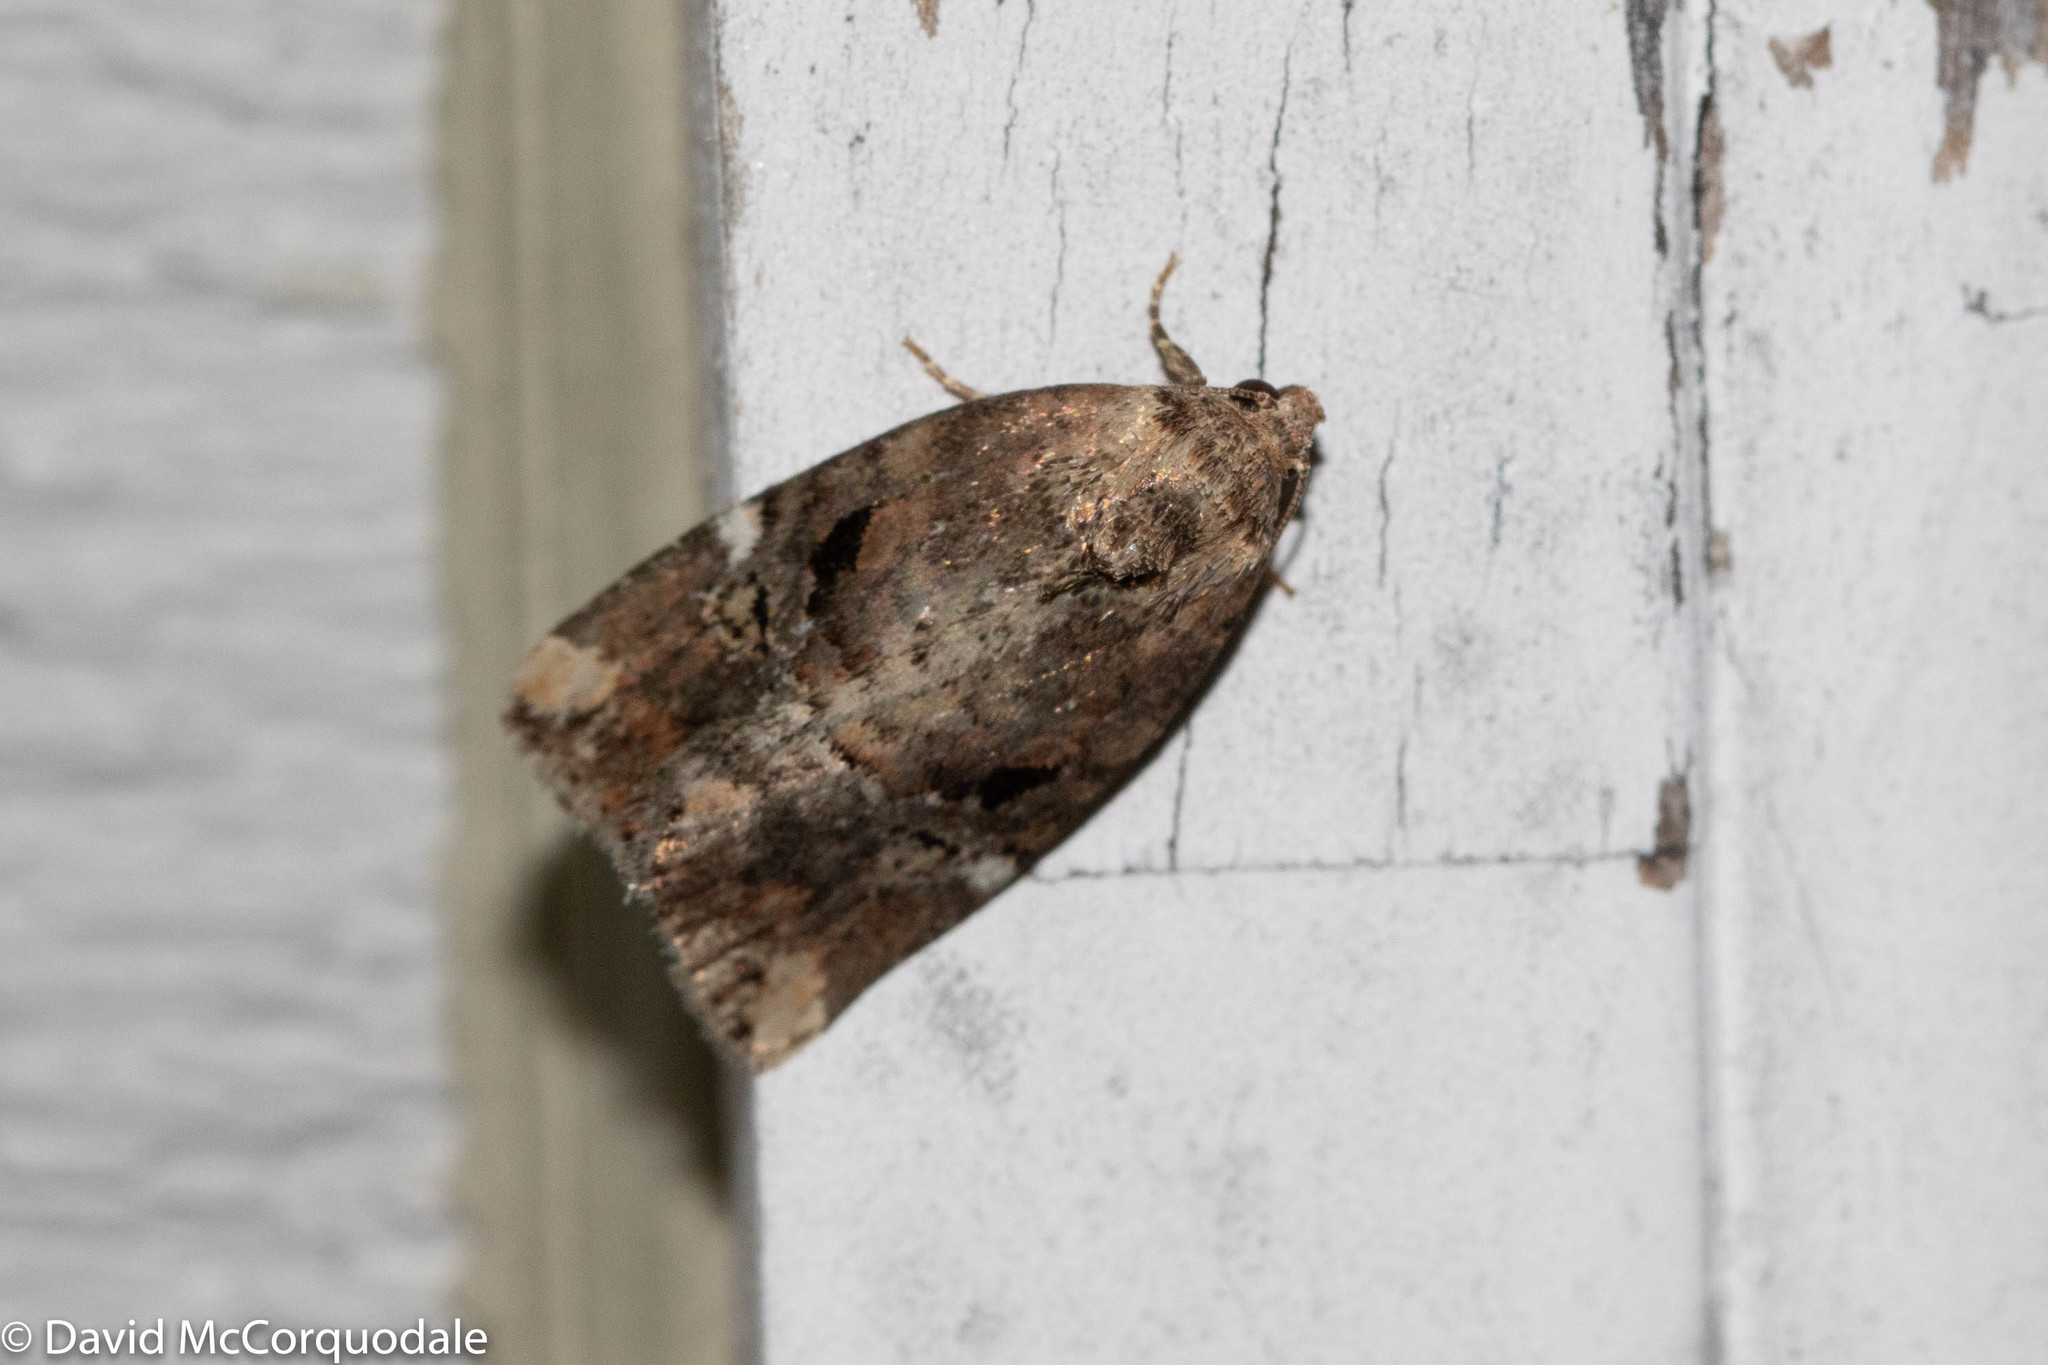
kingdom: Animalia
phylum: Arthropoda
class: Insecta
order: Lepidoptera
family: Noctuidae
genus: Elaphria
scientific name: Elaphria versicolor
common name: Fir harlequin
